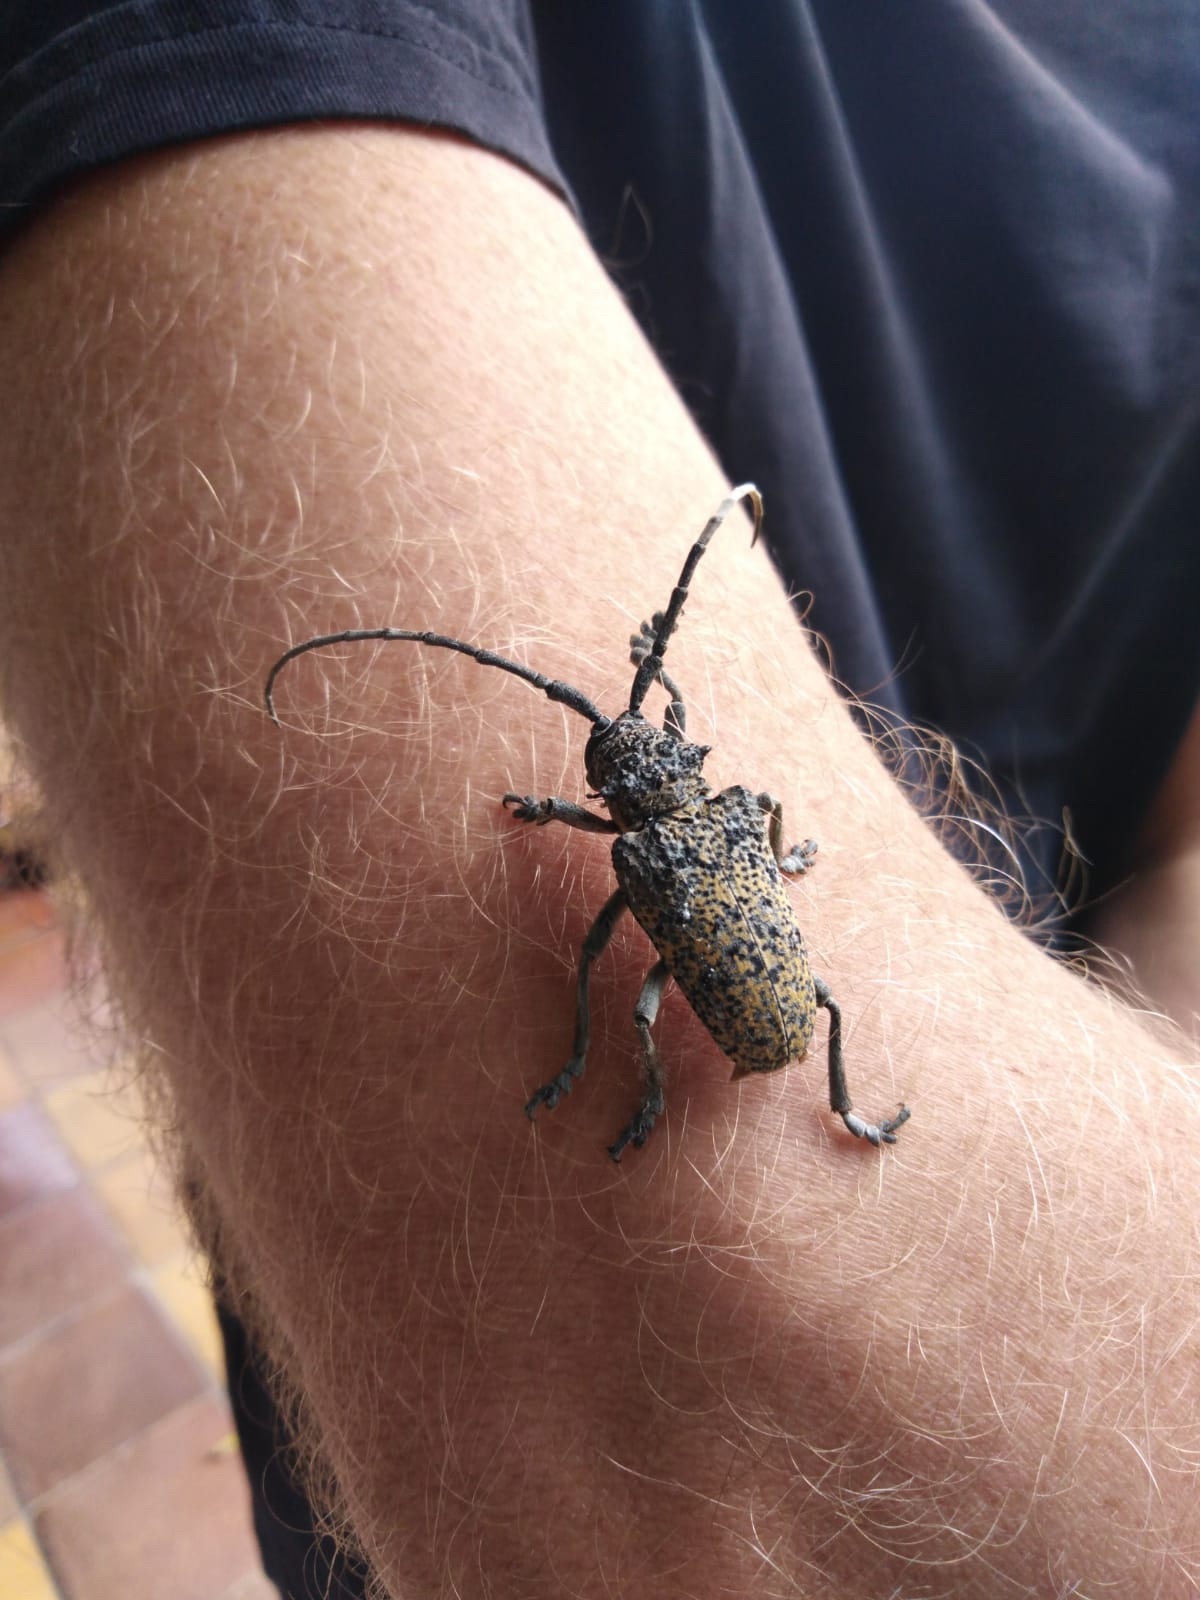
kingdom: Animalia
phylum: Arthropoda
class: Insecta
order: Coleoptera
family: Cerambycidae
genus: Phryneta
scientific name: Phryneta spinator
